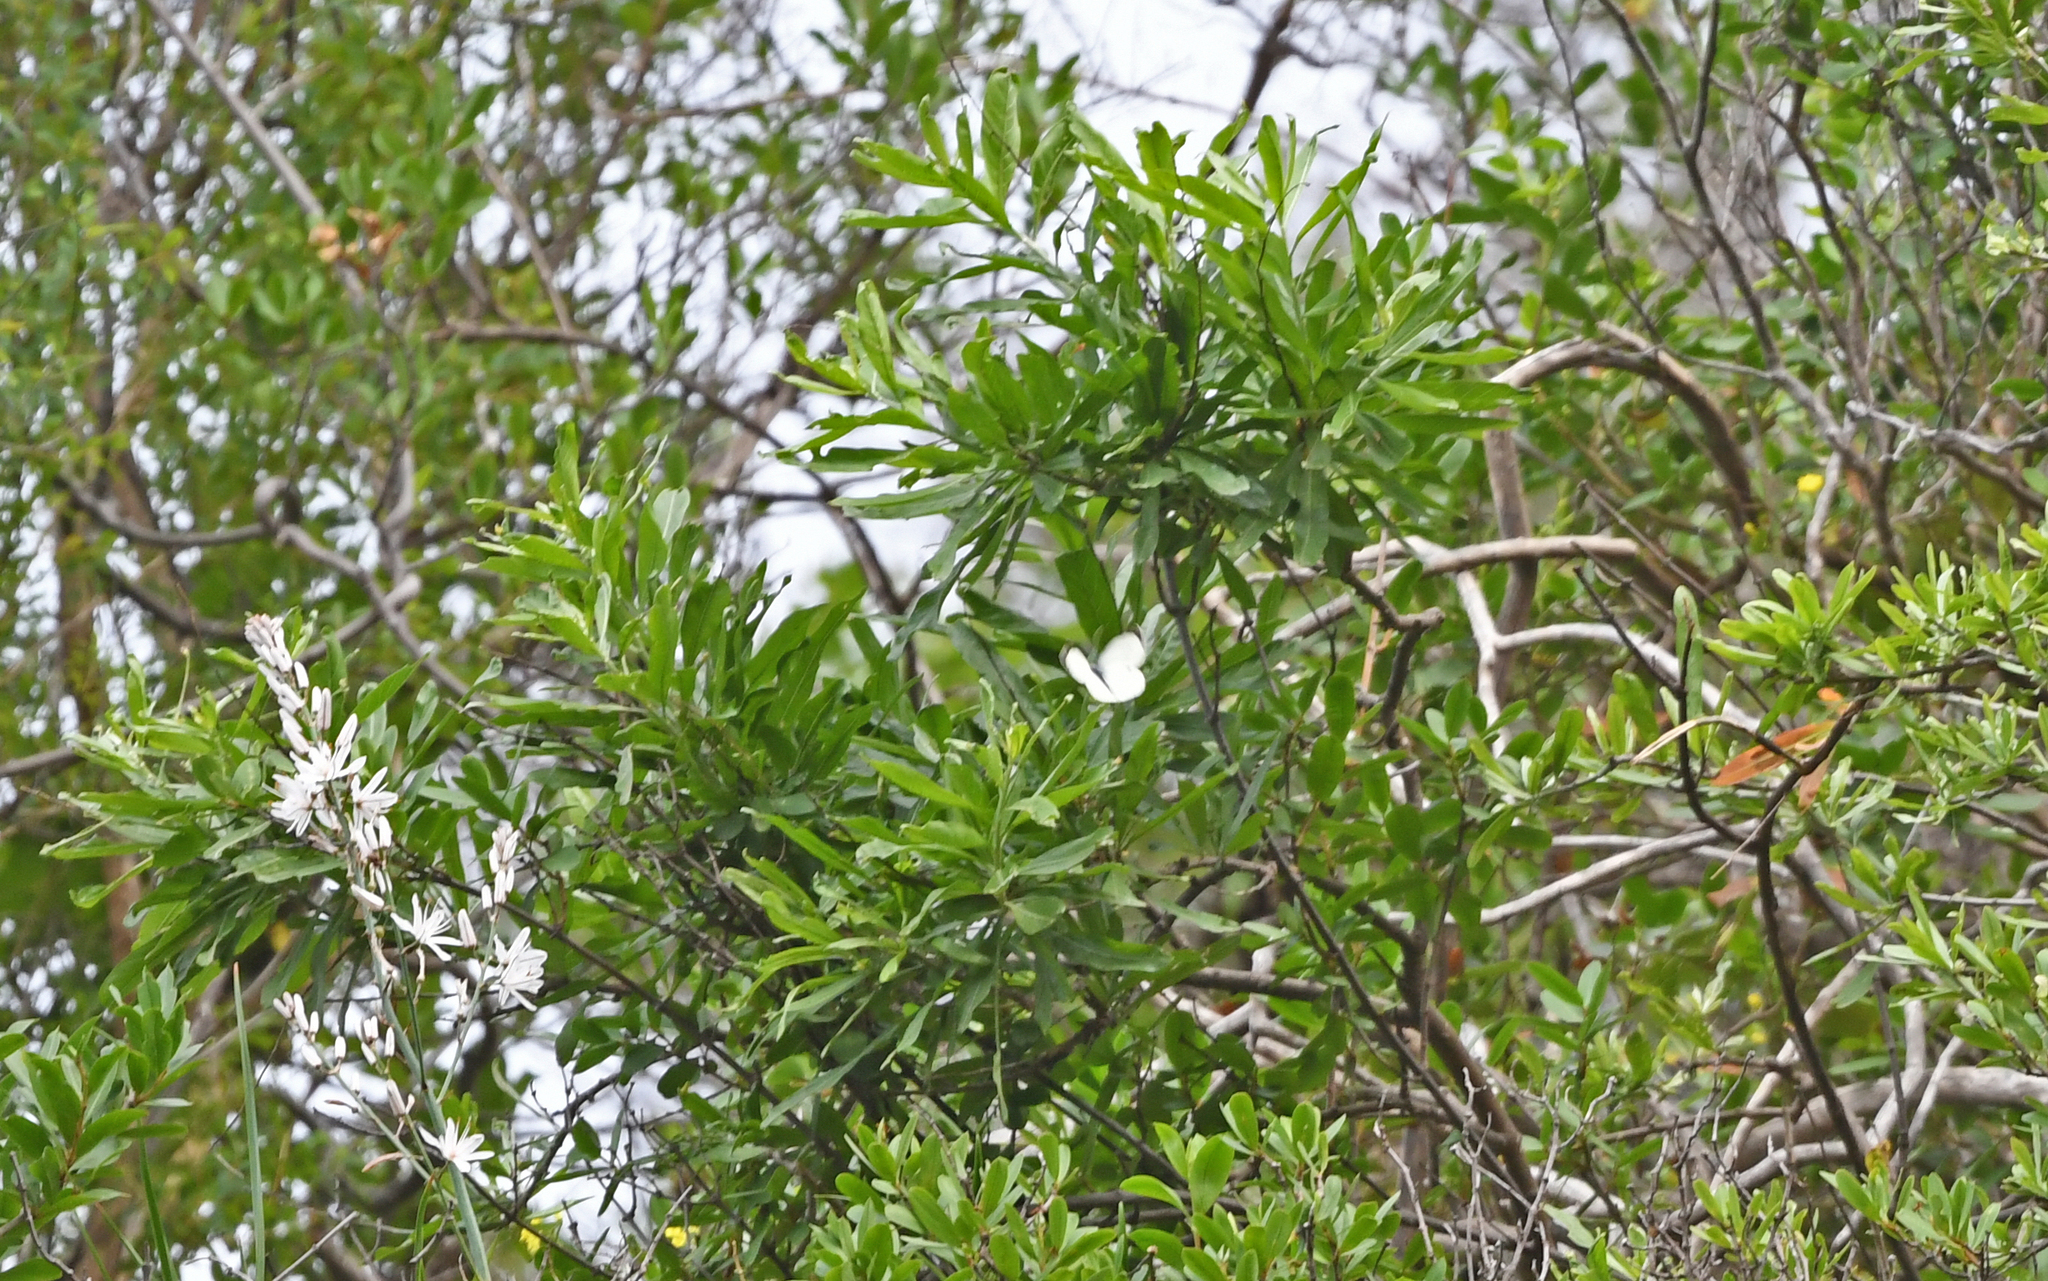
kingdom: Animalia
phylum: Arthropoda
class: Insecta
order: Lepidoptera
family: Pieridae
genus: Pieris
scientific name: Pieris cheiranthi
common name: Canary islands large white
